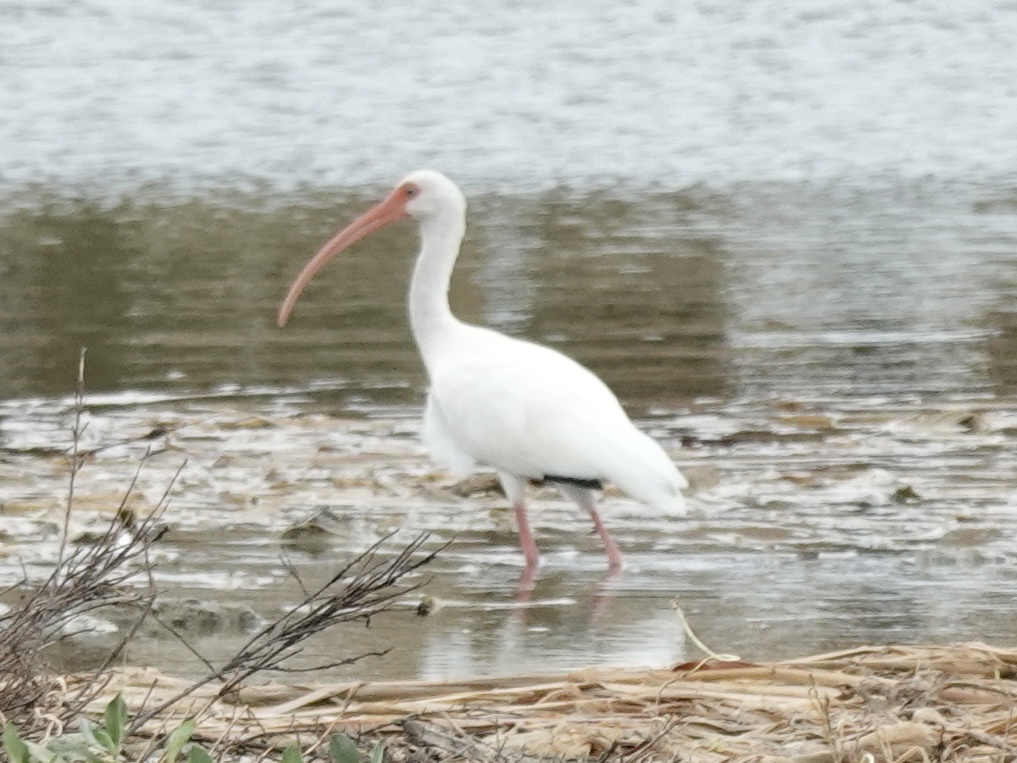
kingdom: Animalia
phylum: Chordata
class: Aves
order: Pelecaniformes
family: Threskiornithidae
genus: Eudocimus
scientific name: Eudocimus albus
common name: White ibis
